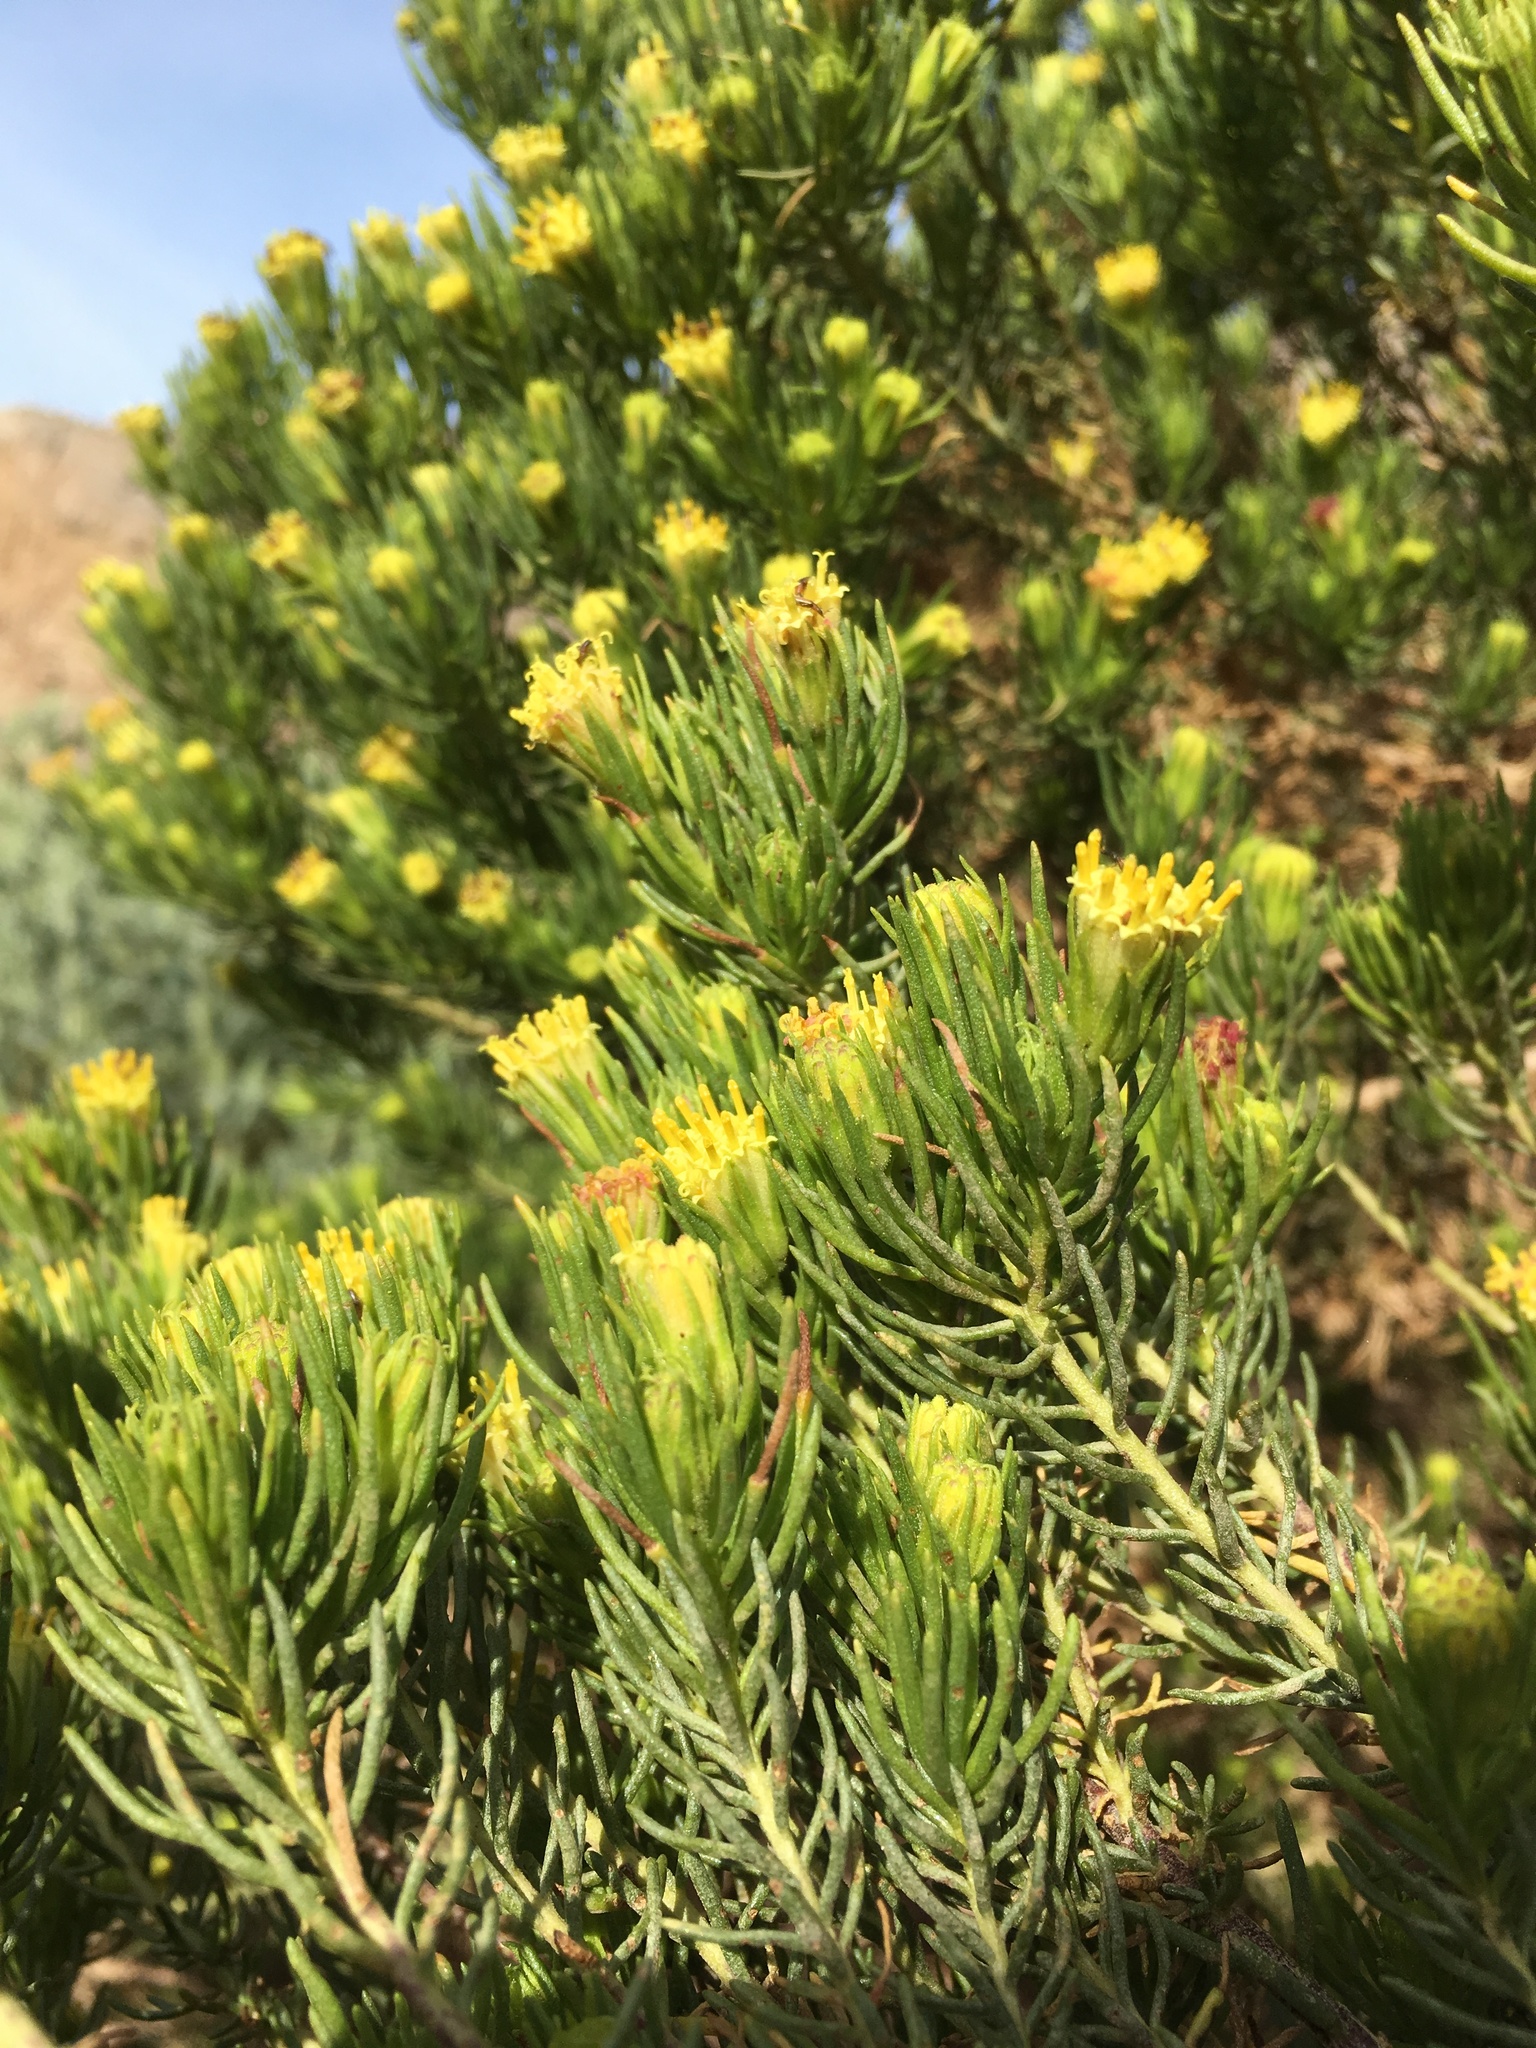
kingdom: Plantae
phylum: Tracheophyta
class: Magnoliopsida
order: Asterales
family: Asteraceae
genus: Peucephyllum
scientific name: Peucephyllum schottii
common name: Pygmy-cedar
